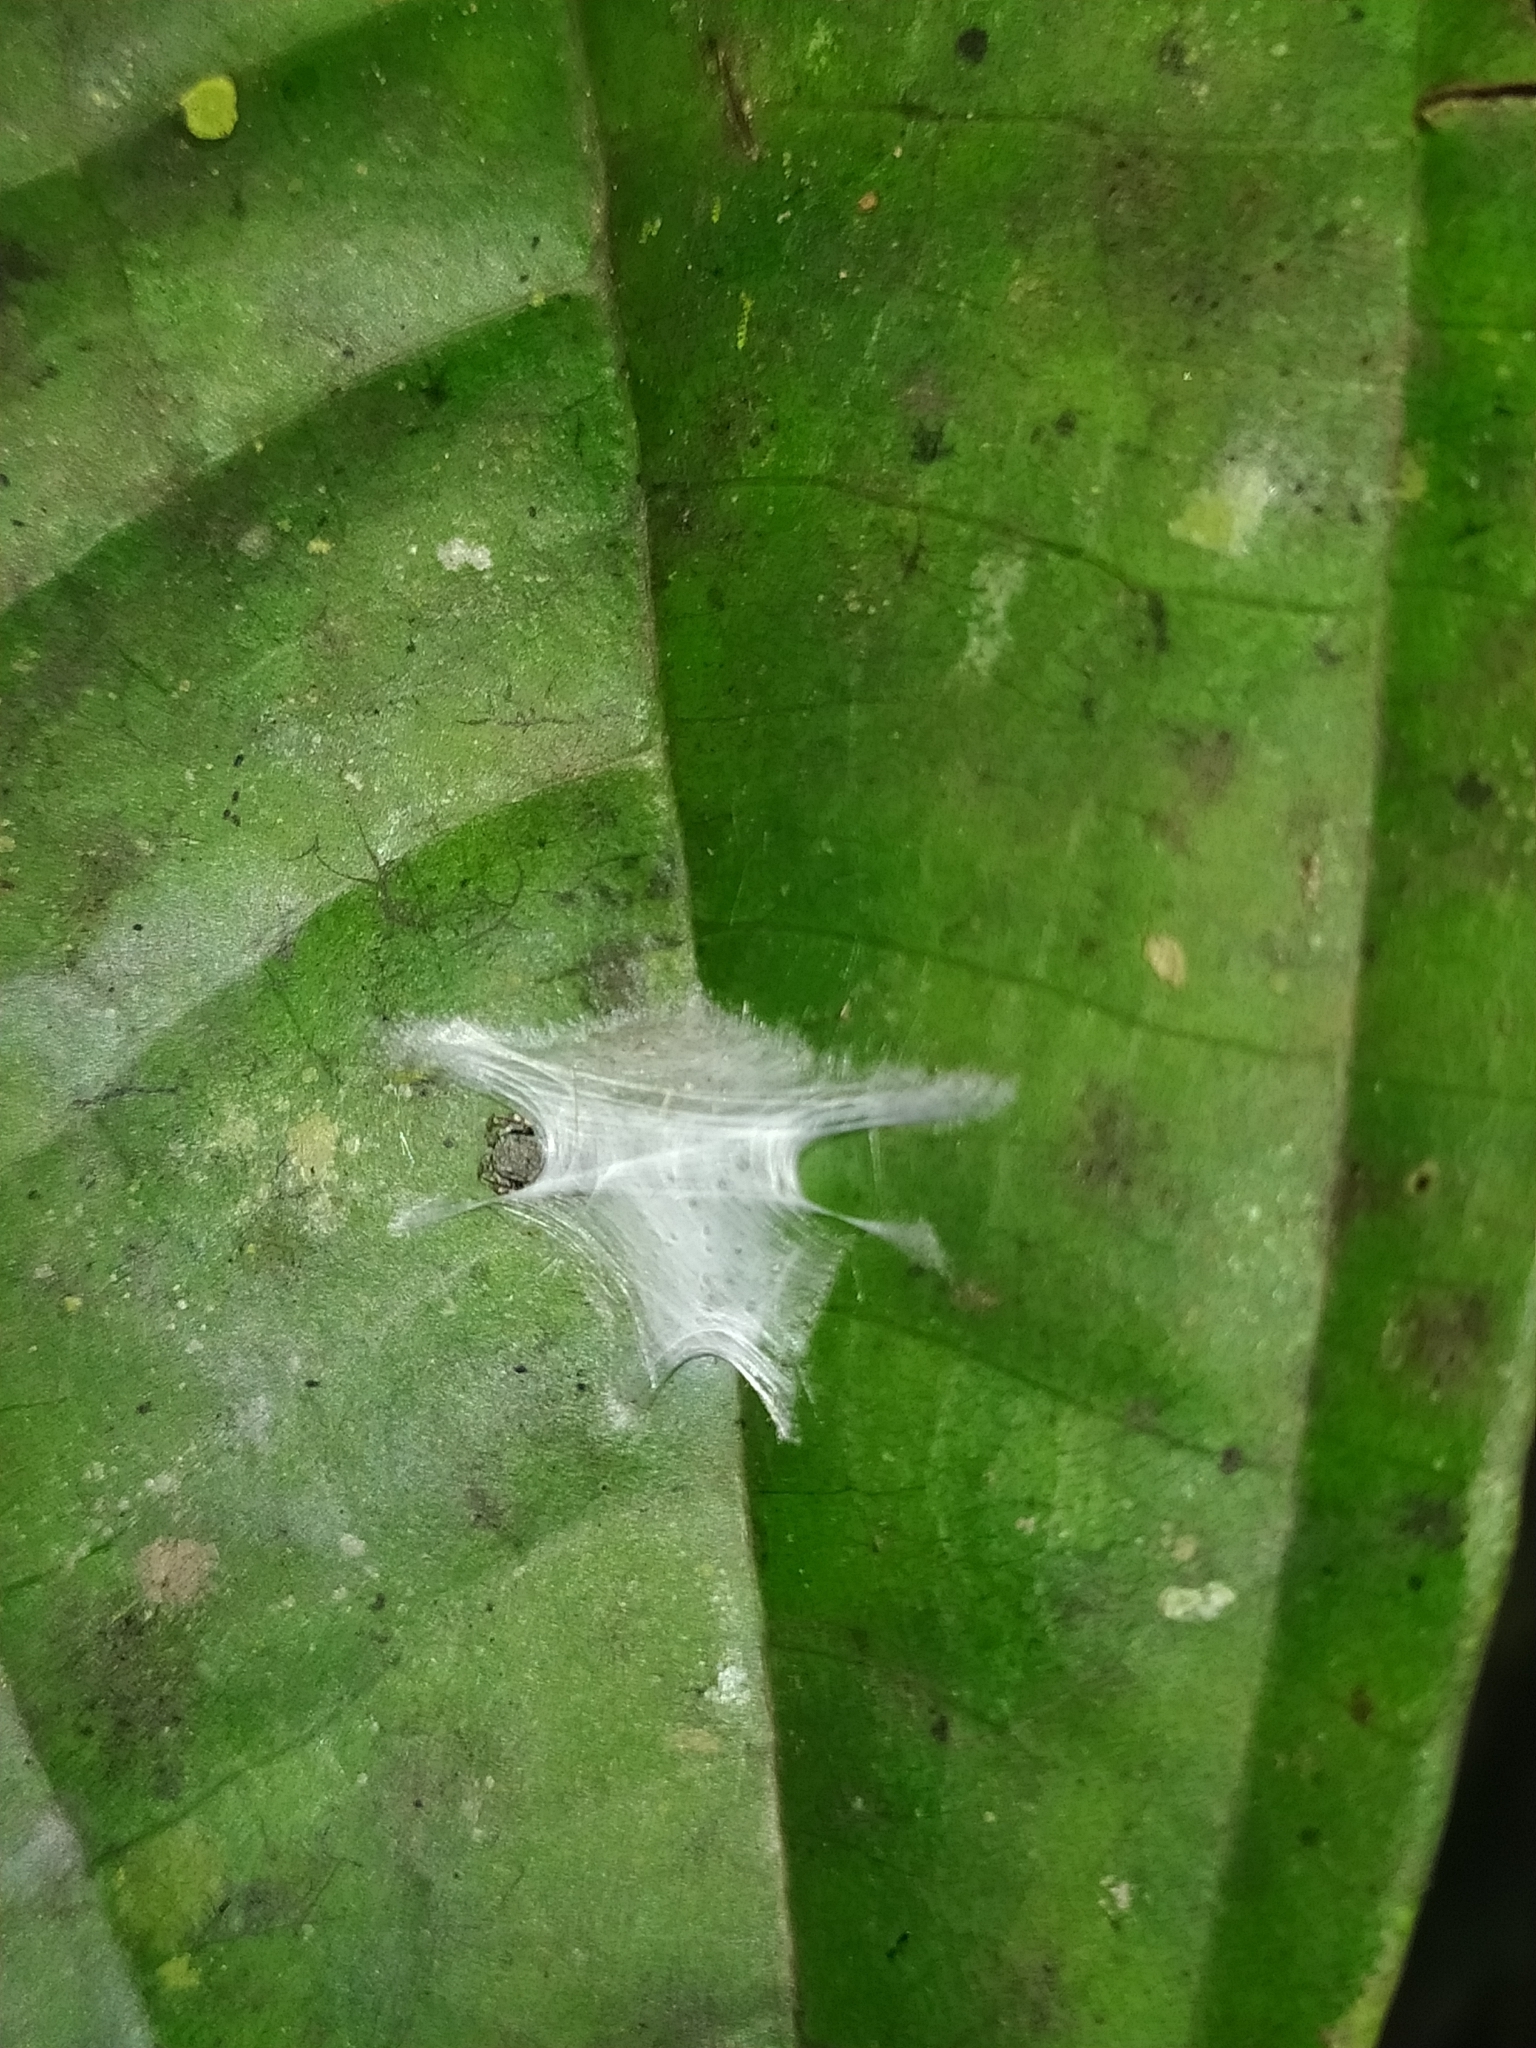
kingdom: Animalia
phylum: Arthropoda
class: Arachnida
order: Araneae
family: Salticidae
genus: Fritzia
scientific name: Fritzia
